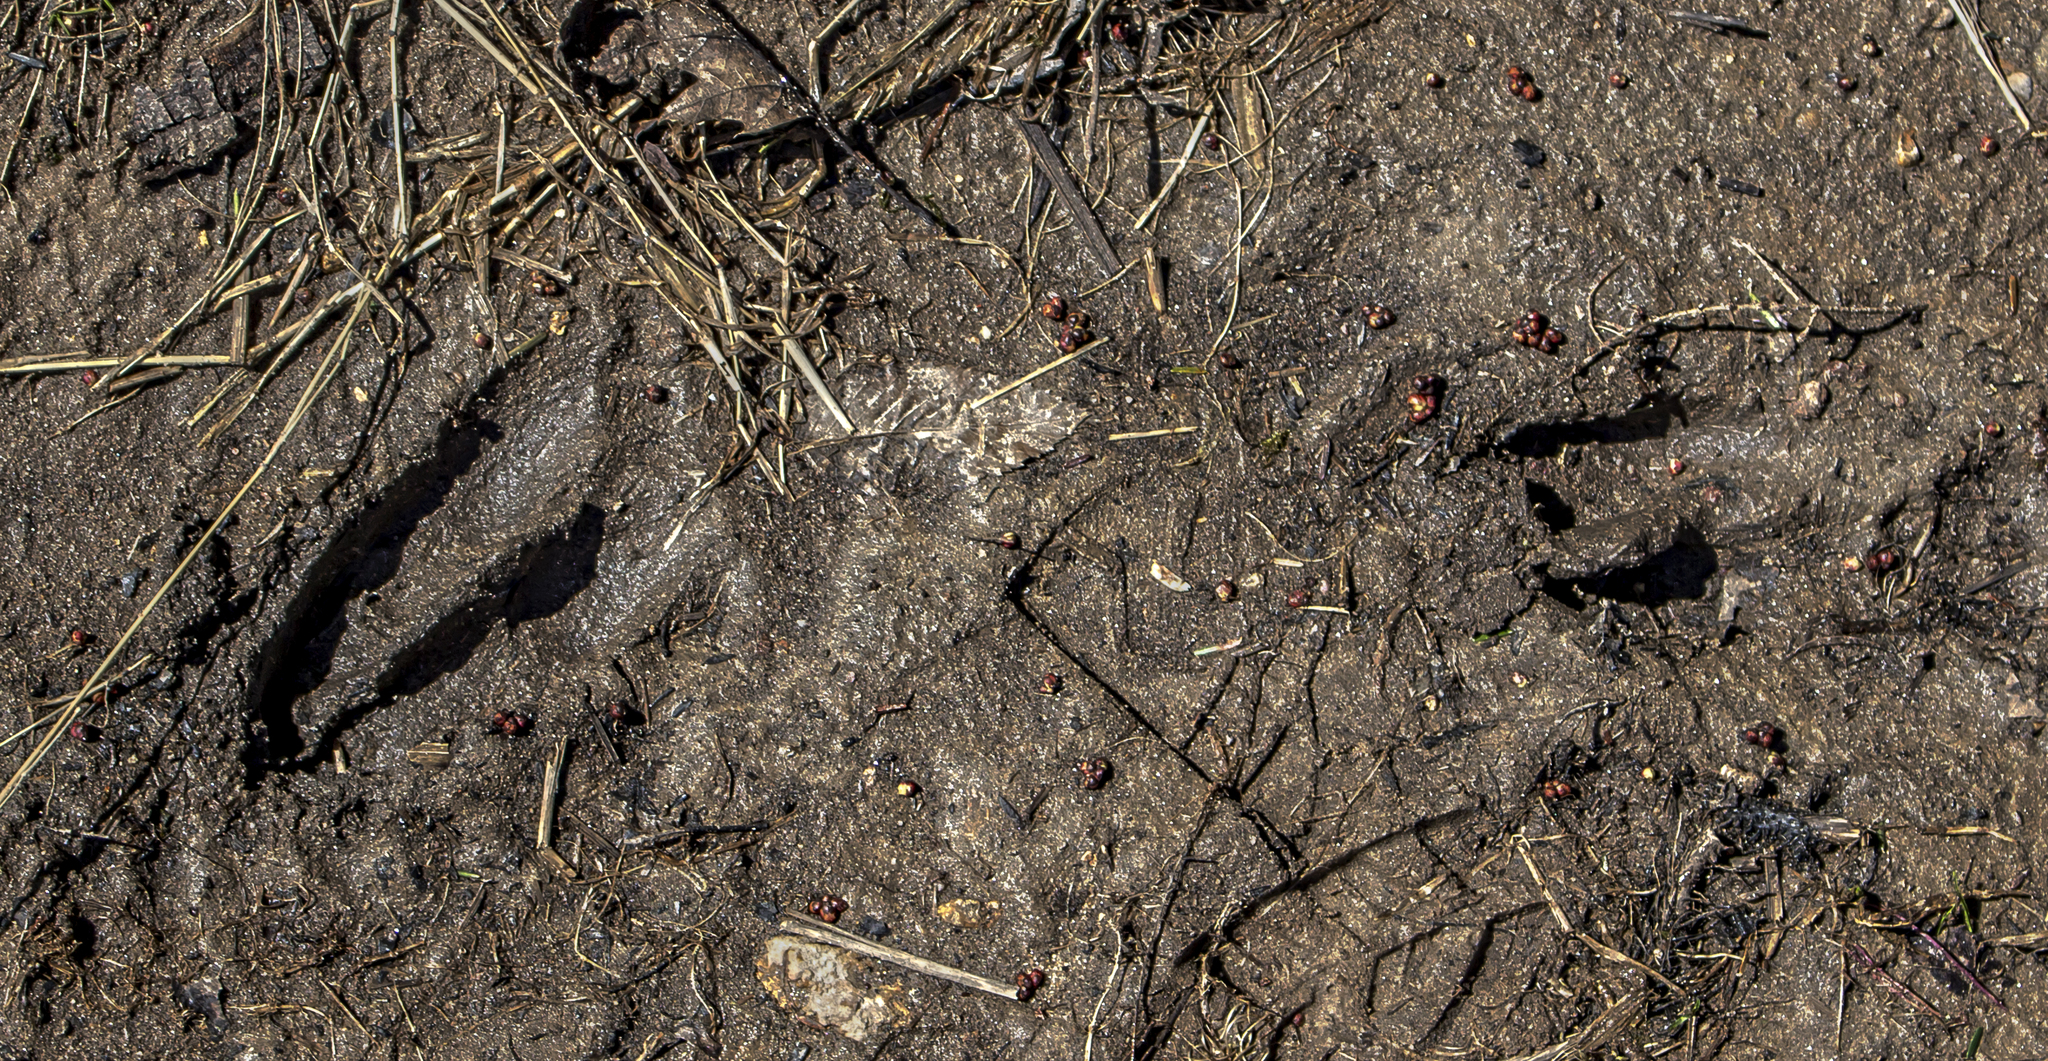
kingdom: Animalia
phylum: Chordata
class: Mammalia
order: Artiodactyla
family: Cervidae
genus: Odocoileus
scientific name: Odocoileus virginianus
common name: White-tailed deer
